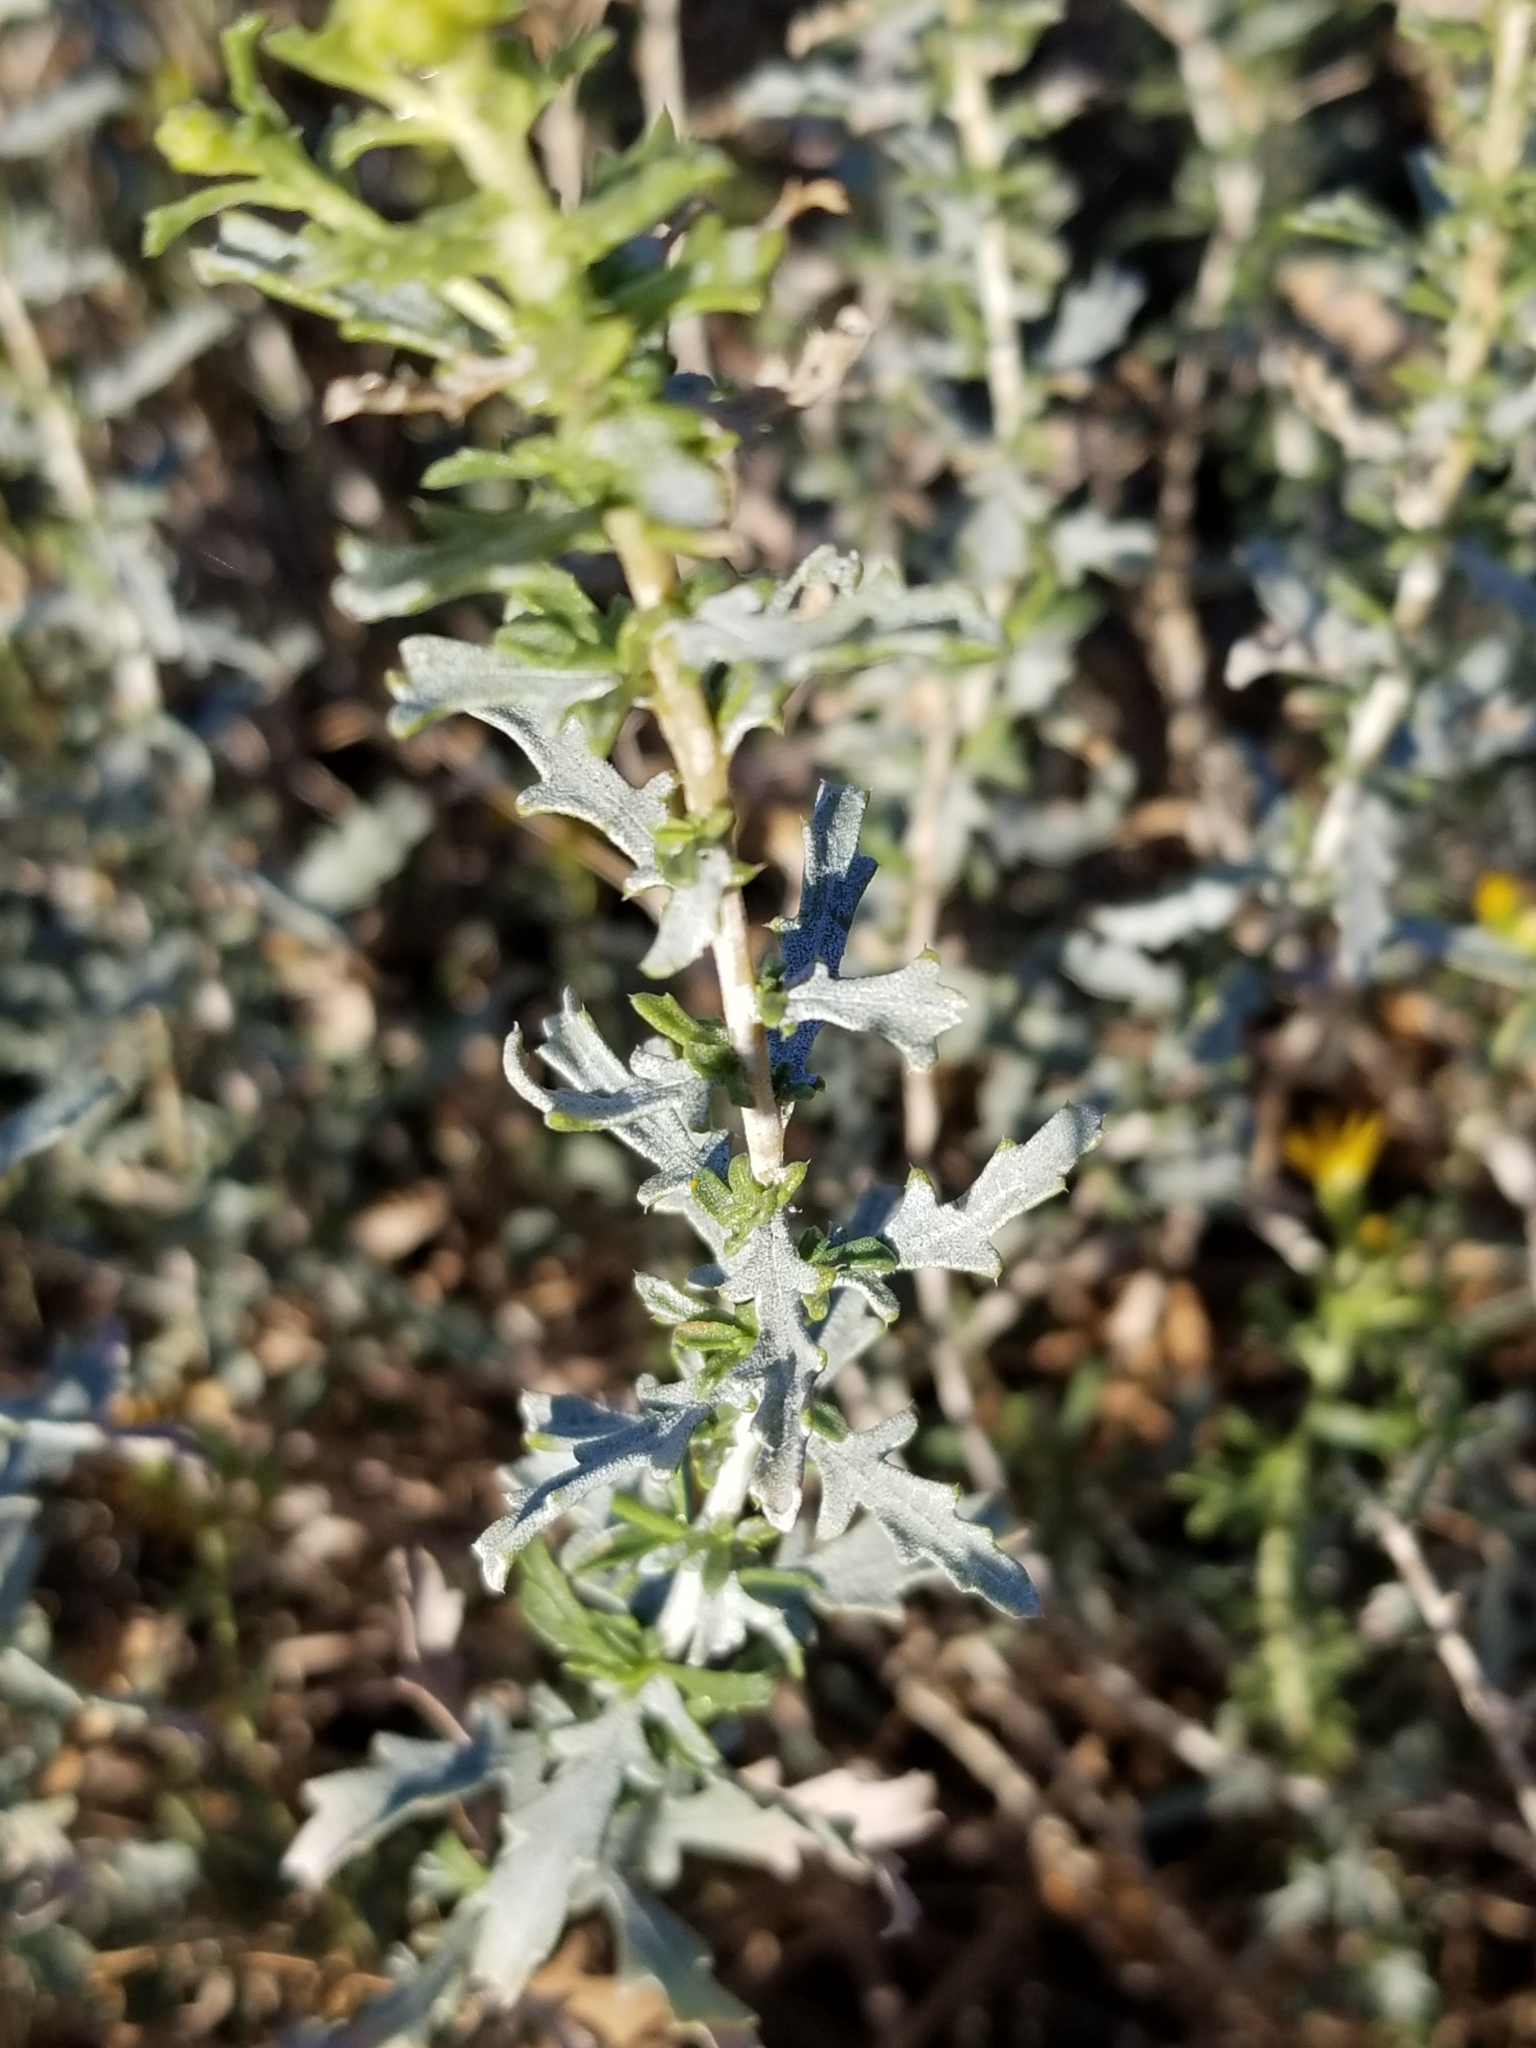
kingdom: Plantae
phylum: Tracheophyta
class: Magnoliopsida
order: Asterales
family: Asteraceae
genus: Isocoma
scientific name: Isocoma acradenia
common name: Alkali jimmyweed
